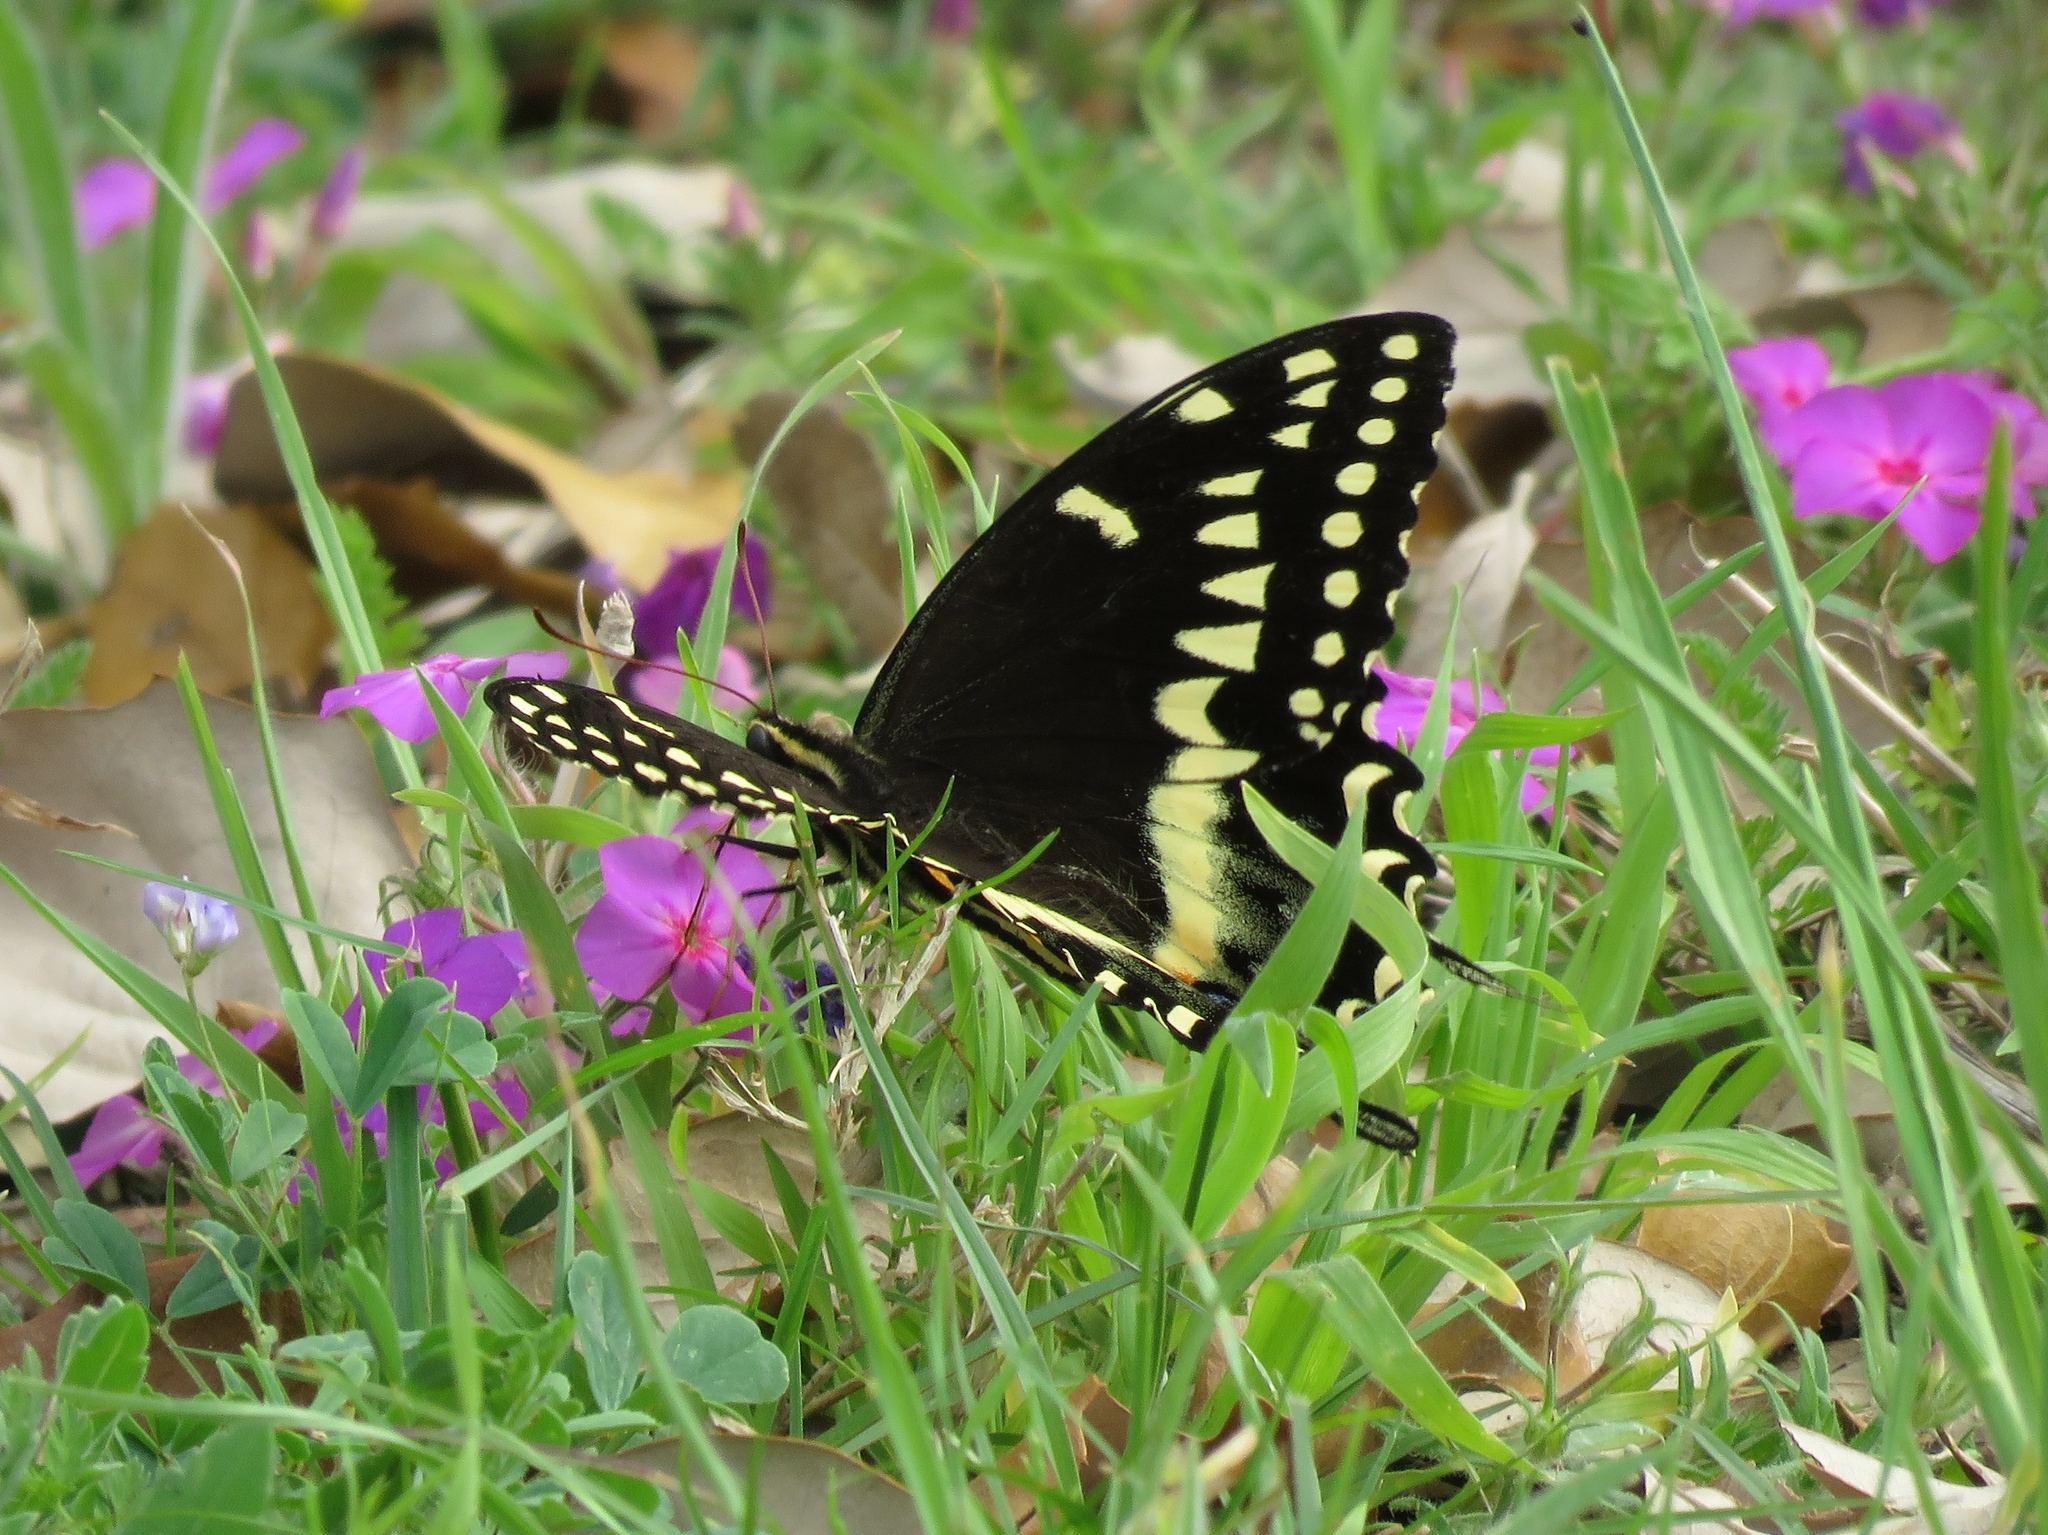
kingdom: Animalia
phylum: Arthropoda
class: Insecta
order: Lepidoptera
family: Papilionidae
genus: Papilio
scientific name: Papilio palamedes
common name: Palamedes swallowtail
